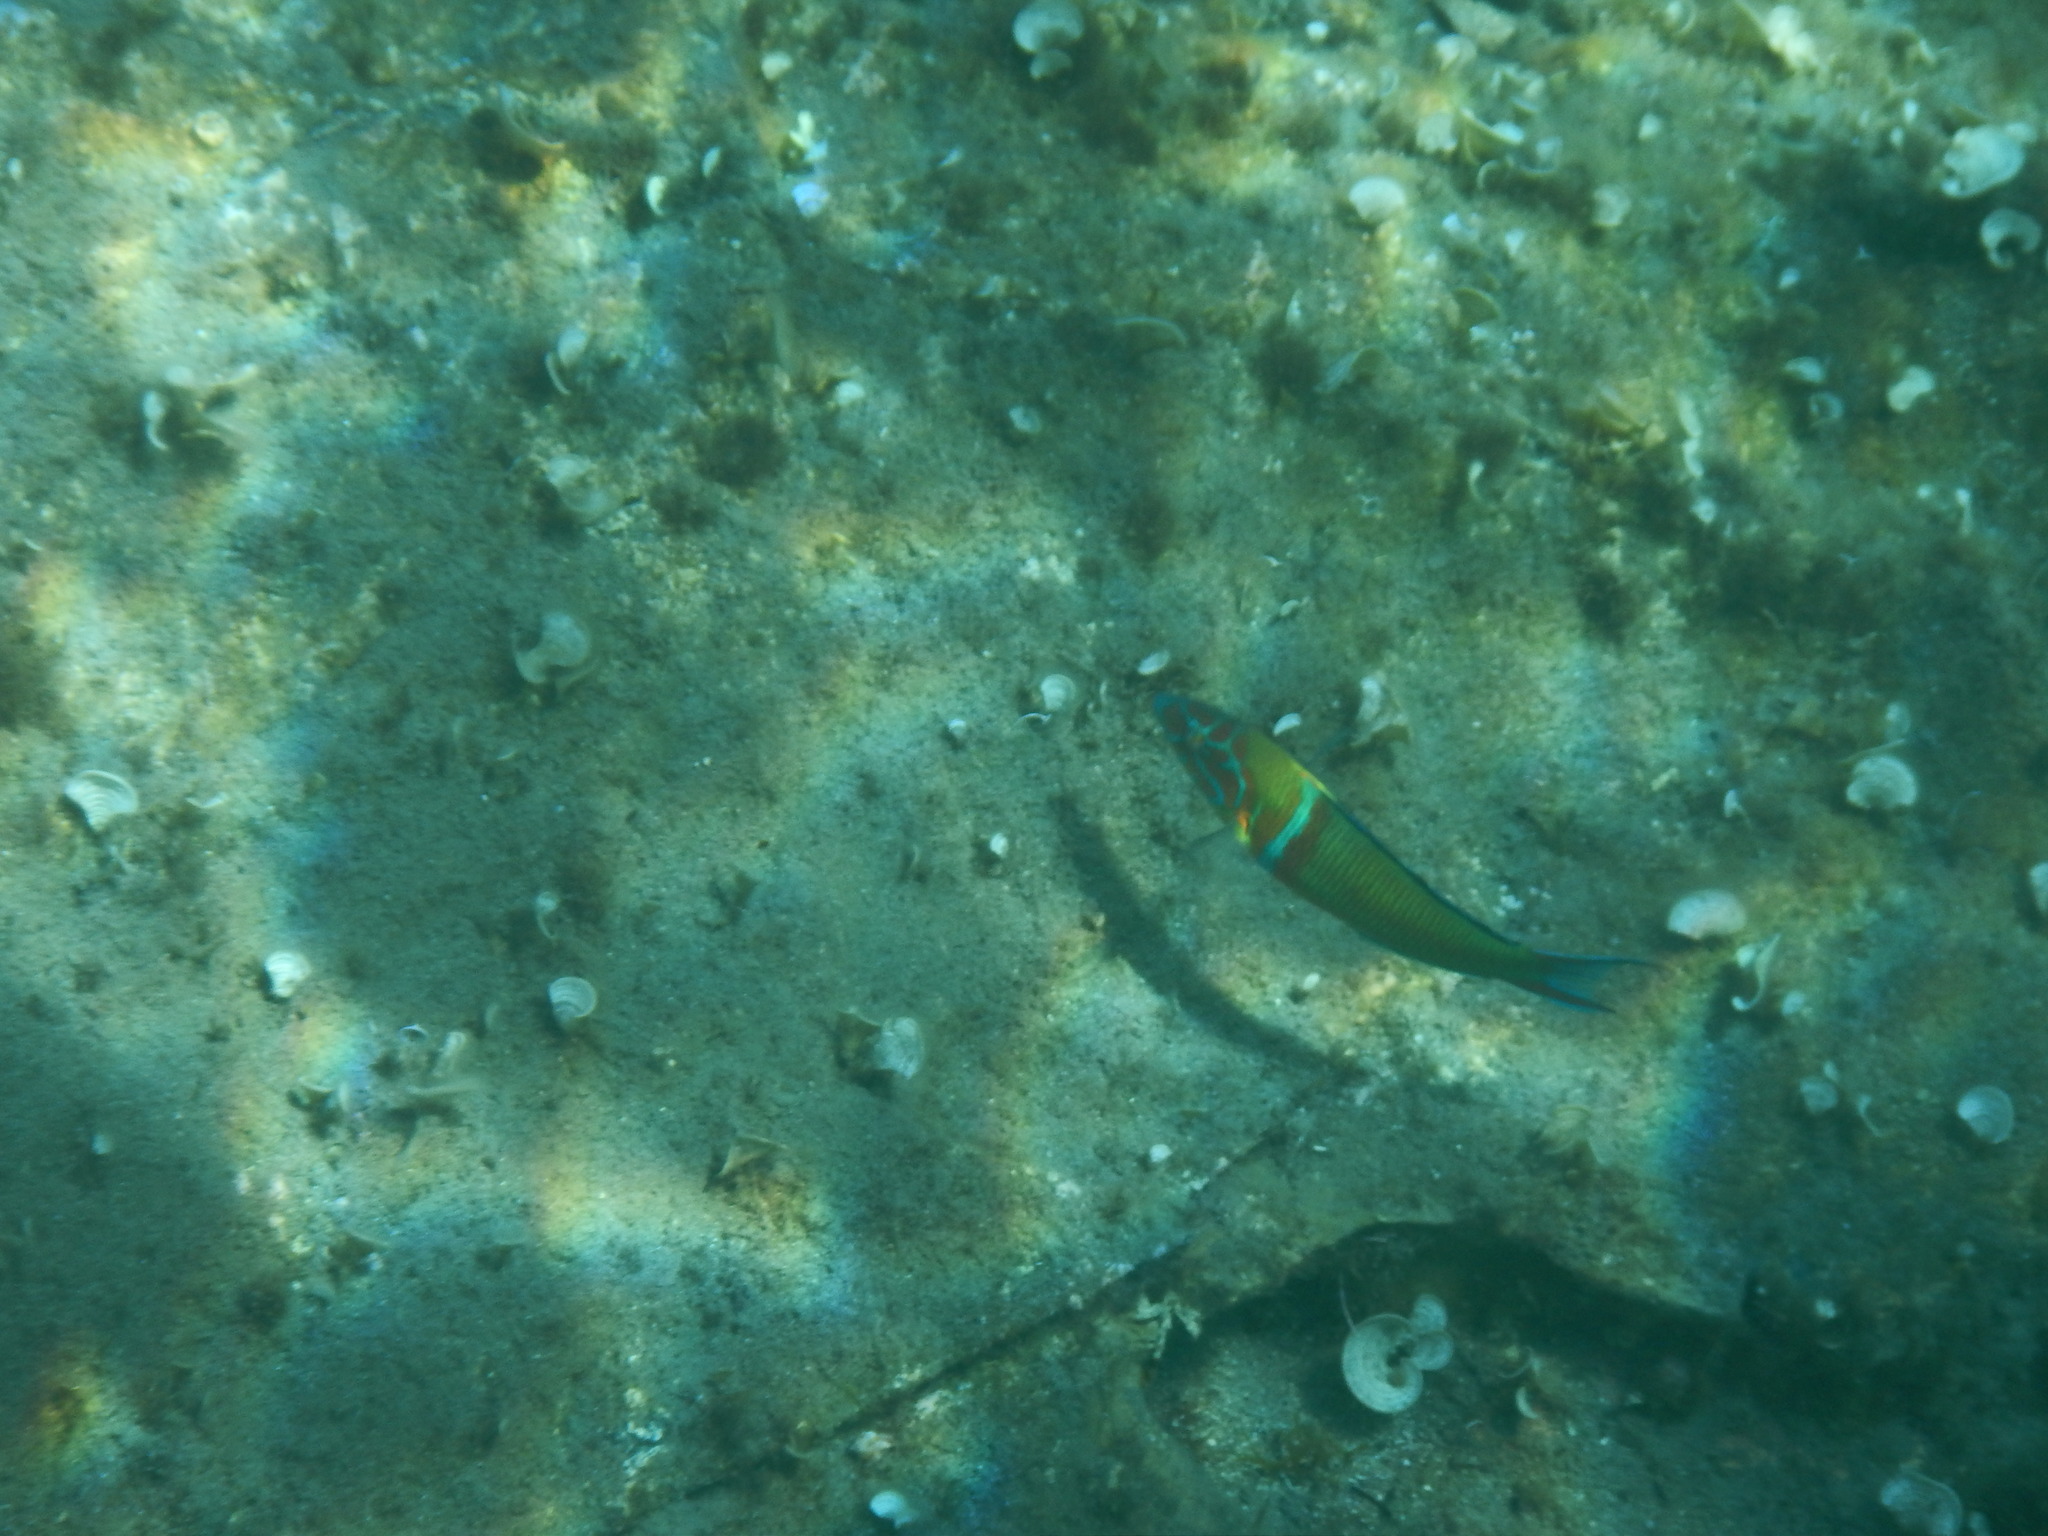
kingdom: Animalia
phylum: Chordata
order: Perciformes
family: Labridae
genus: Thalassoma
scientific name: Thalassoma pavo
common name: Ornate wrasse
